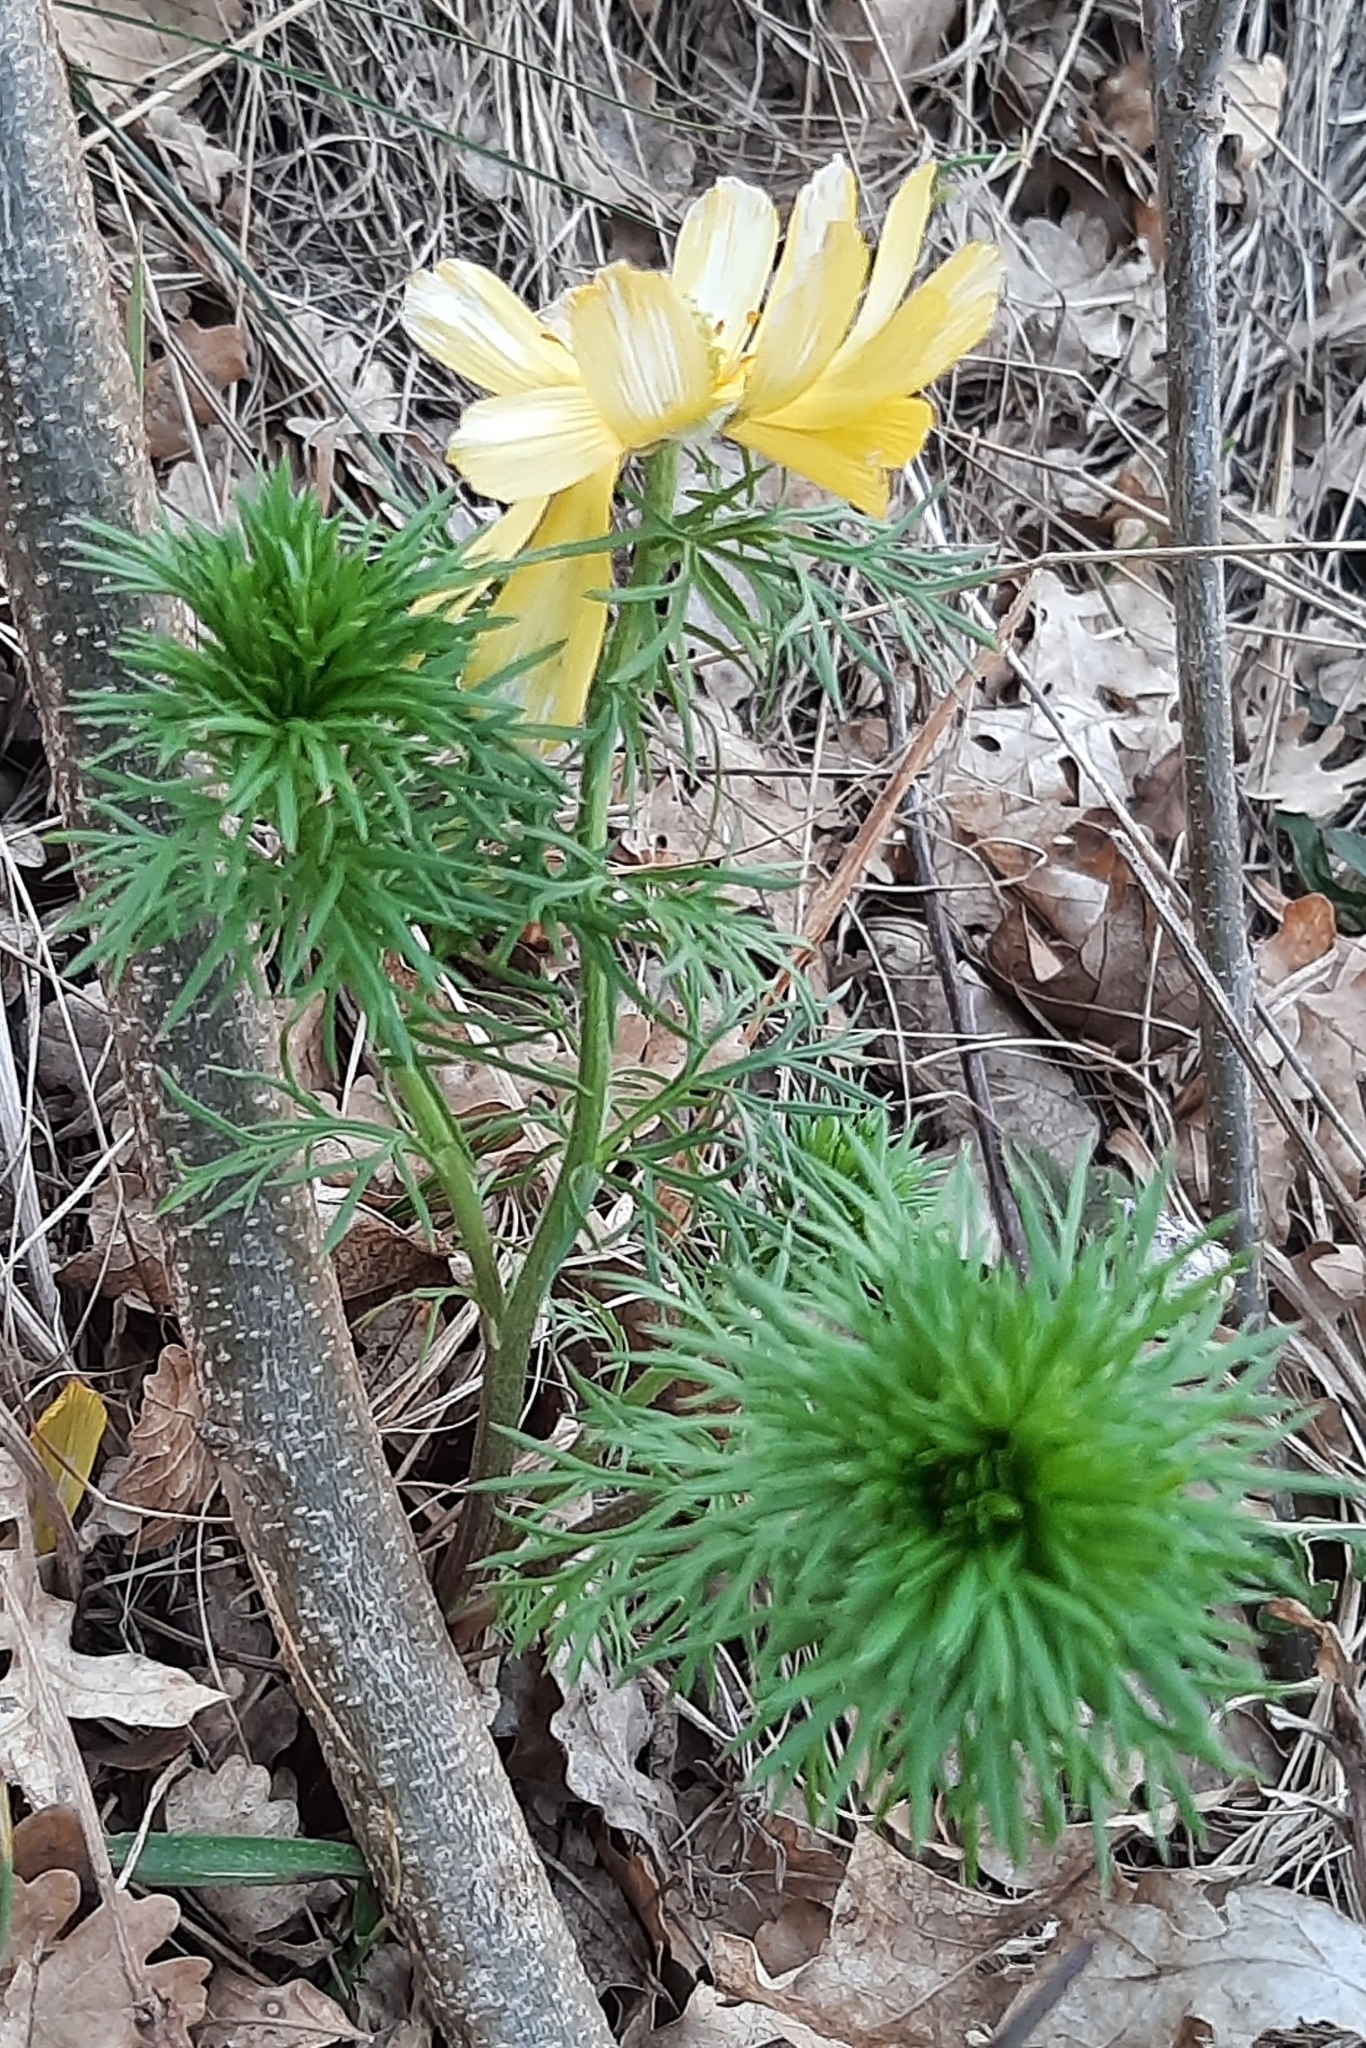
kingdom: Plantae
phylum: Tracheophyta
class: Magnoliopsida
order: Ranunculales
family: Ranunculaceae
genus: Adonis
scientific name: Adonis vernalis
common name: Yellow pheasants-eye
